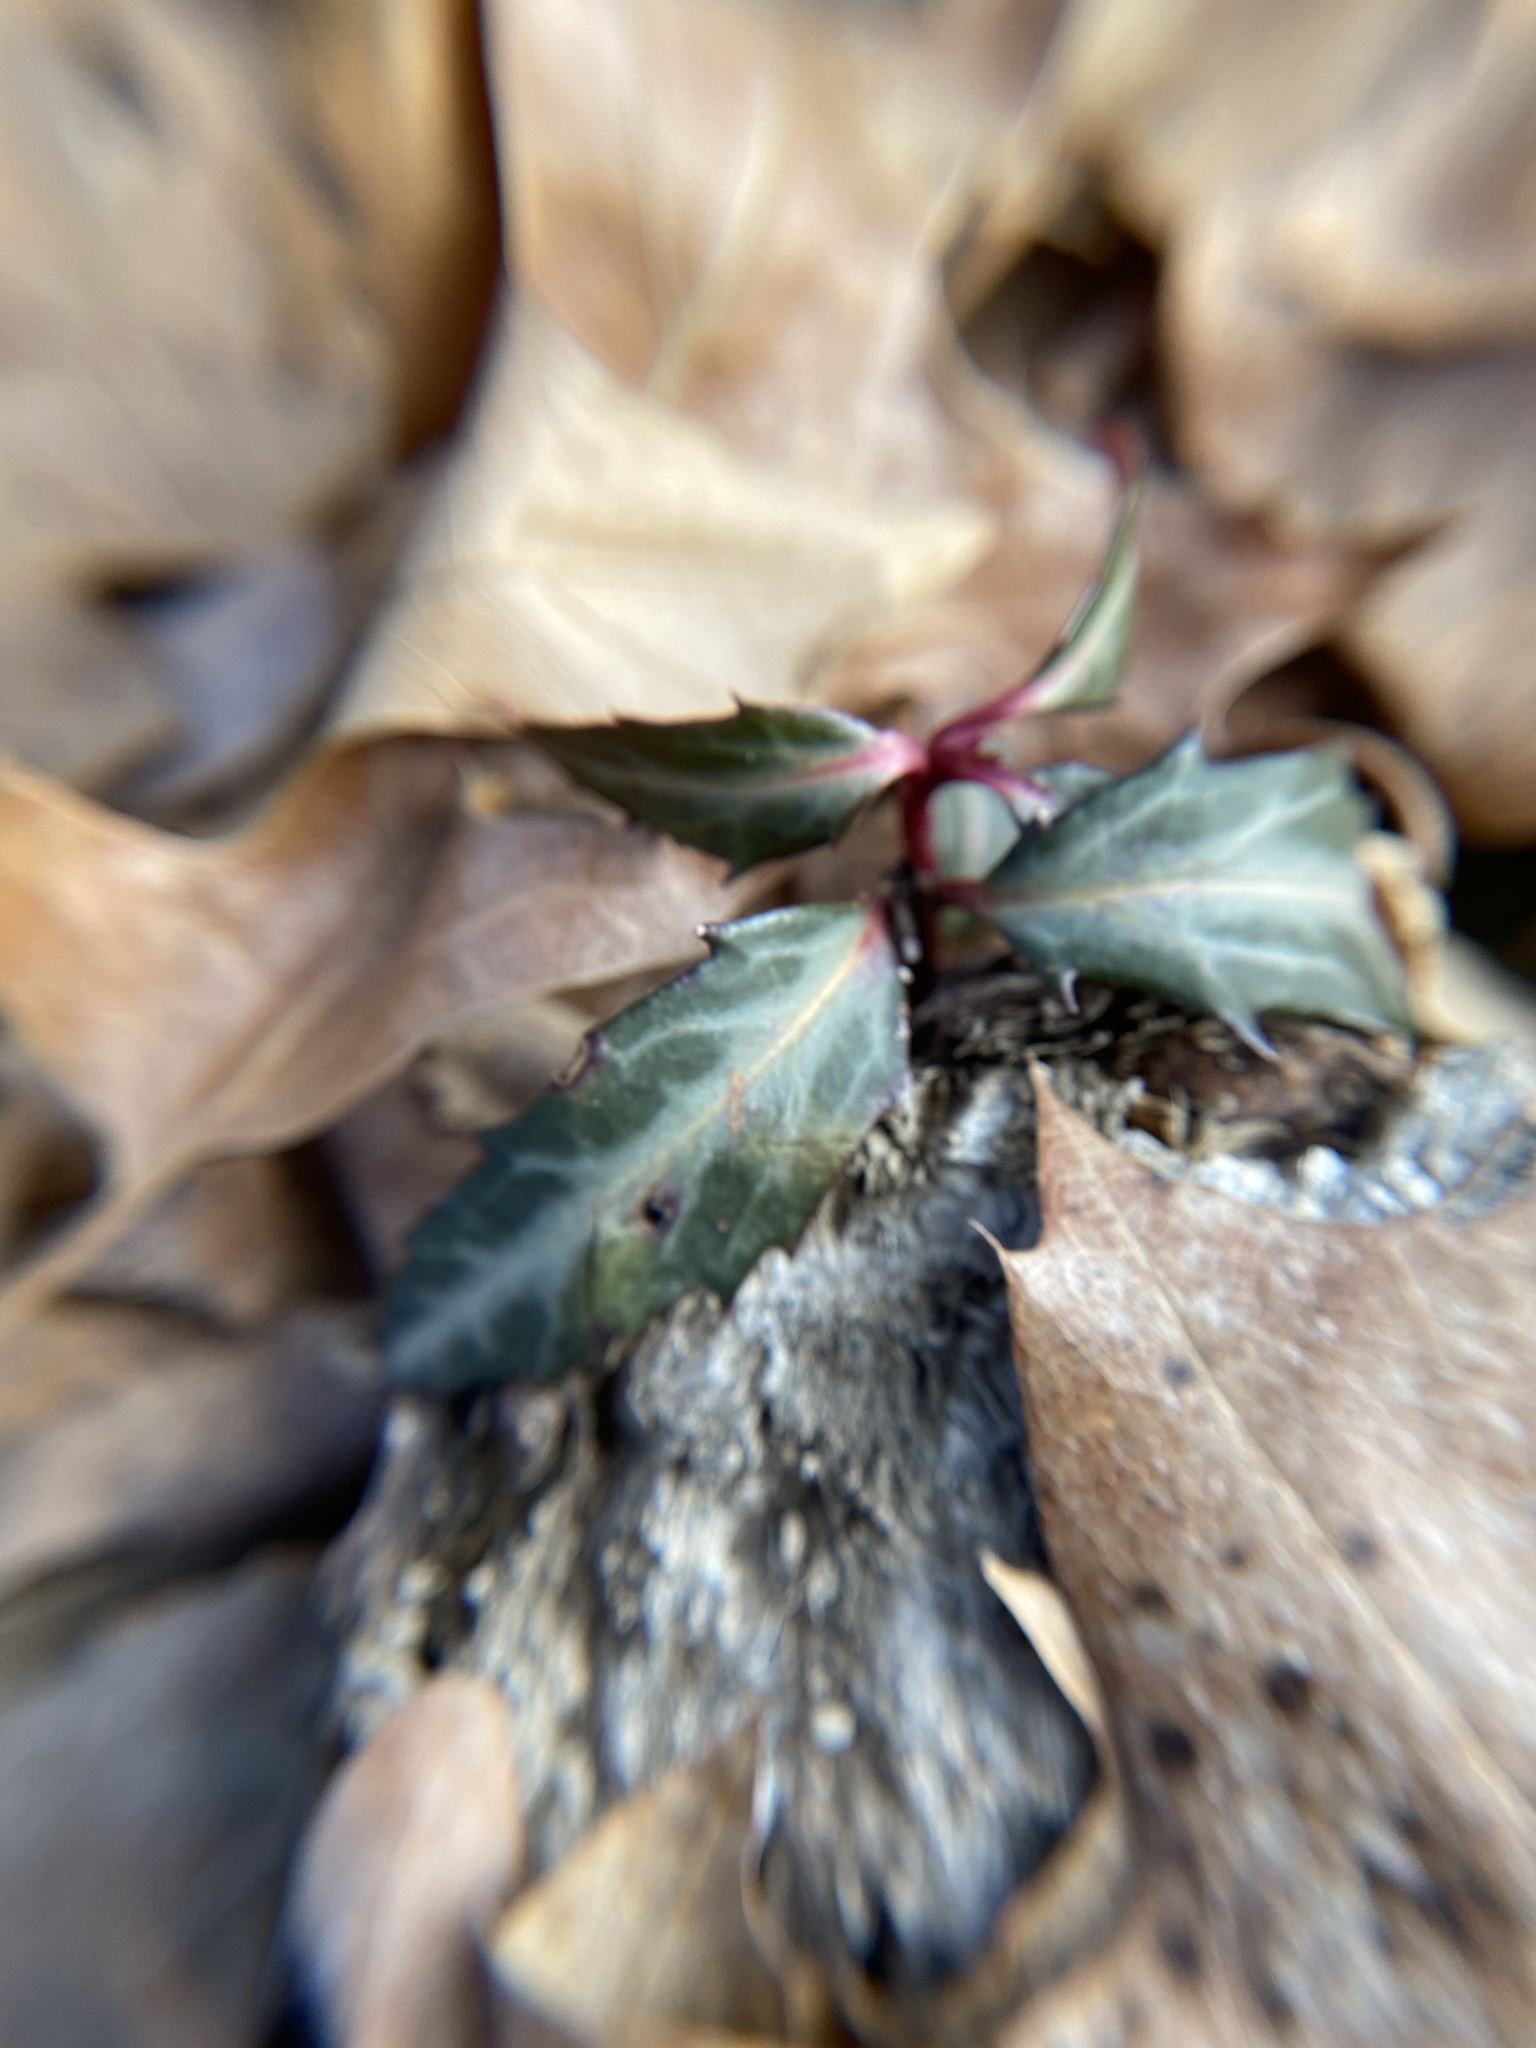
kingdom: Plantae
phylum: Tracheophyta
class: Magnoliopsida
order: Ericales
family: Ericaceae
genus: Chimaphila
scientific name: Chimaphila maculata
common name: Spotted pipsissewa
